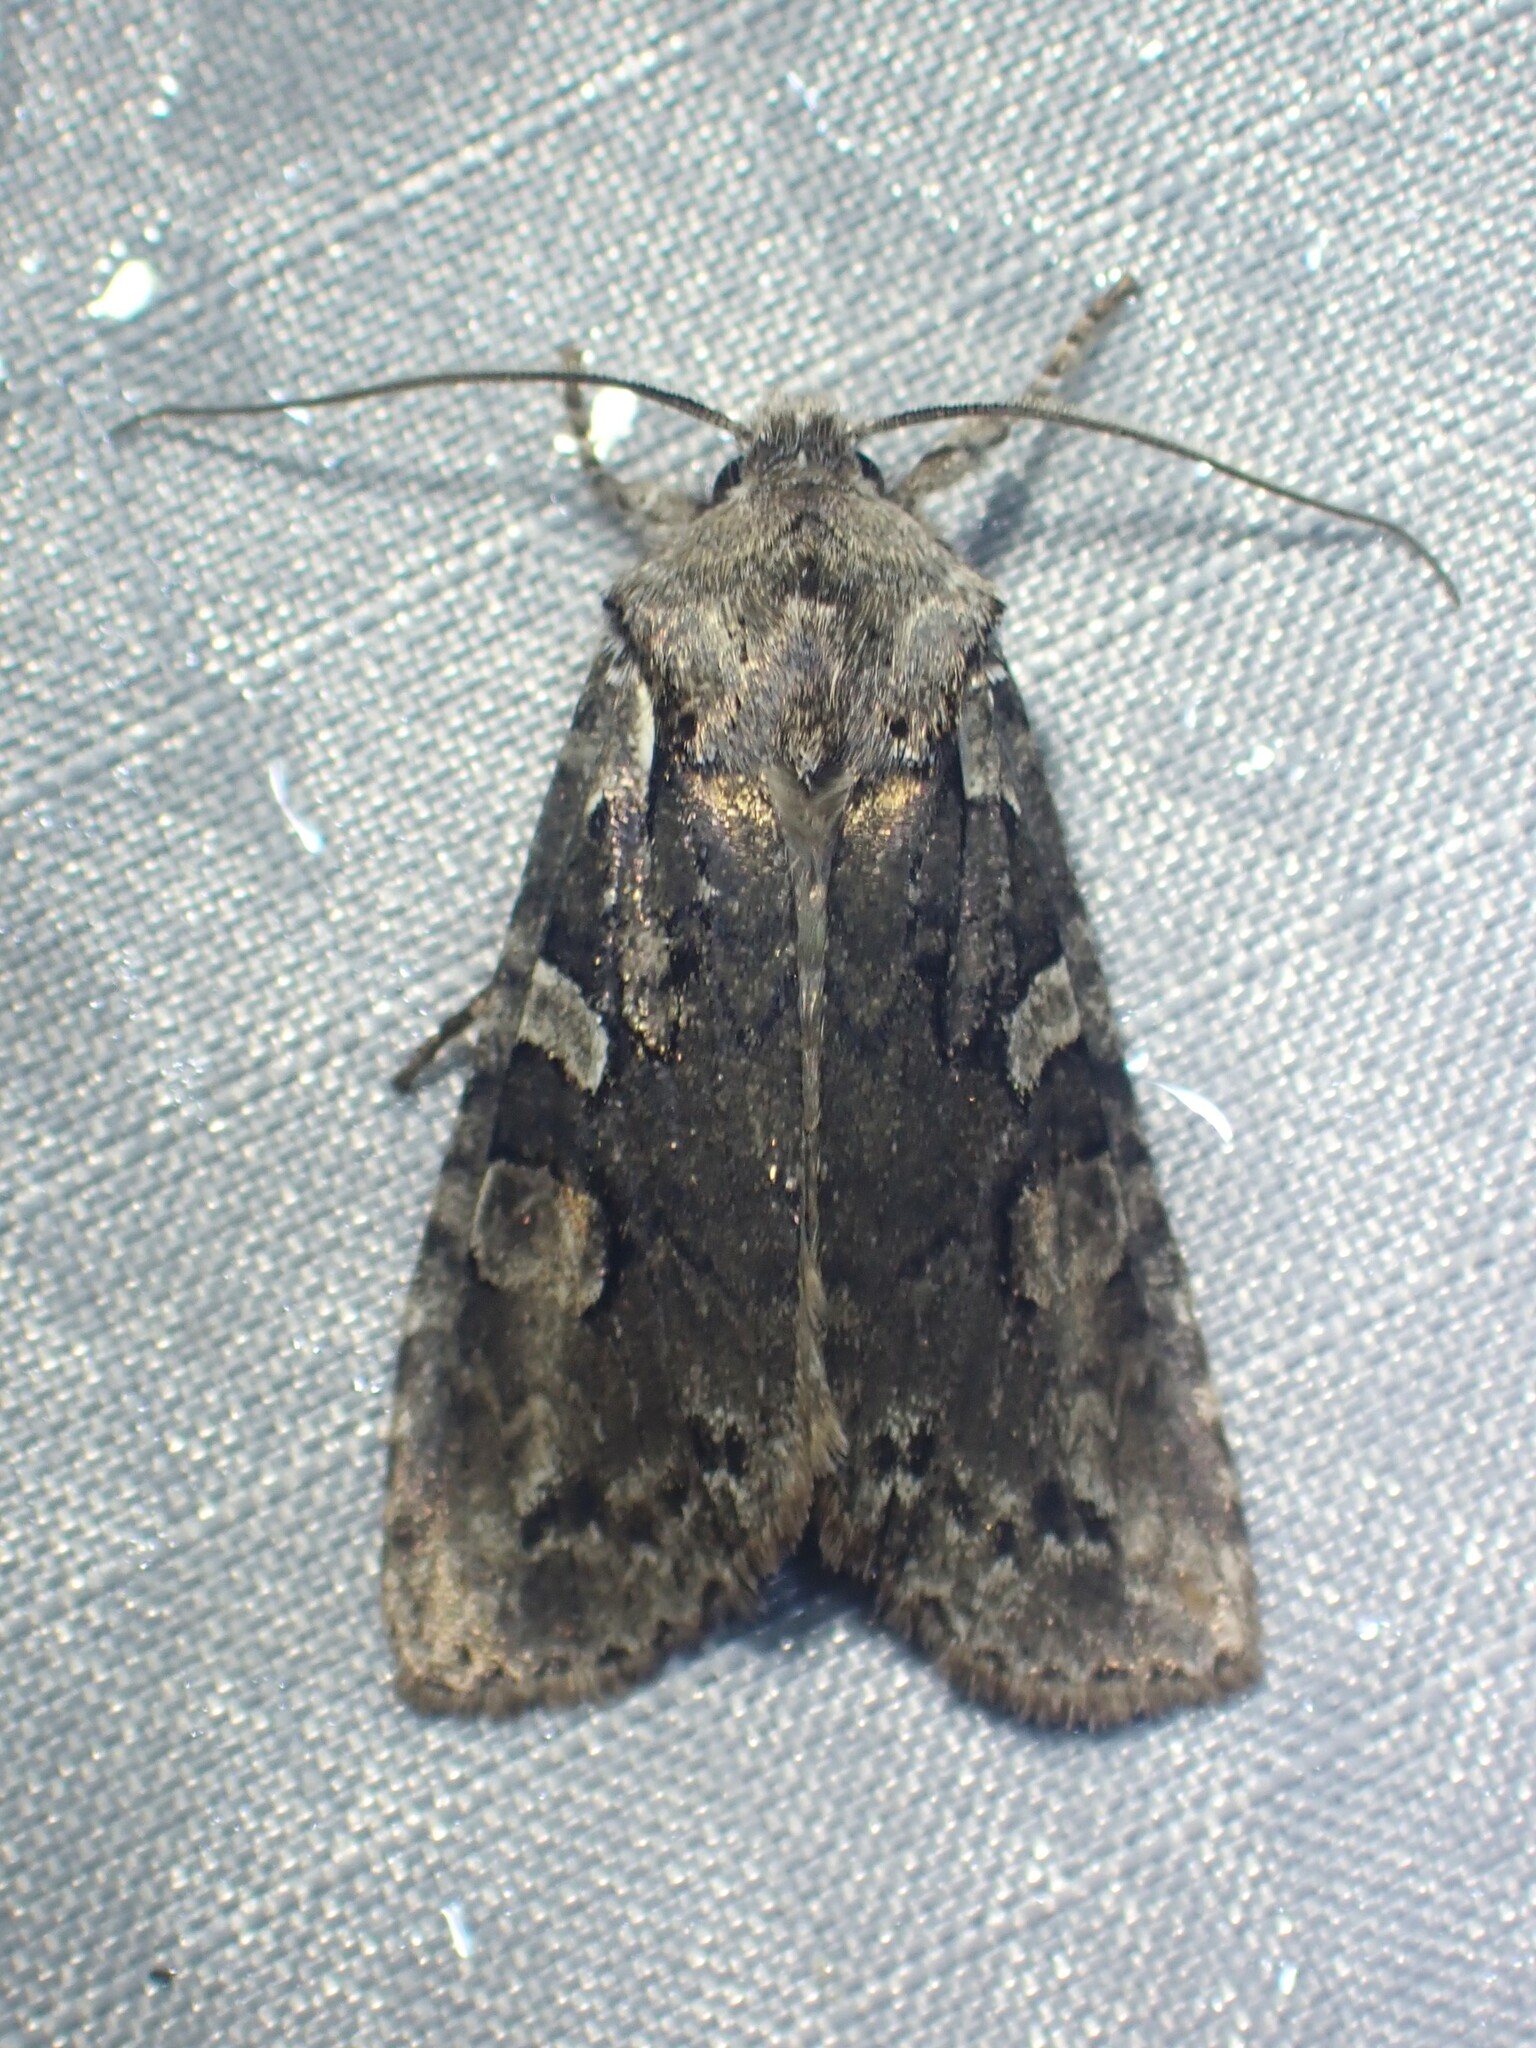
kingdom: Animalia
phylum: Arthropoda
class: Insecta
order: Lepidoptera
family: Noctuidae
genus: Lithophane
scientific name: Lithophane baileyi
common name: Bailey's pinion moth
